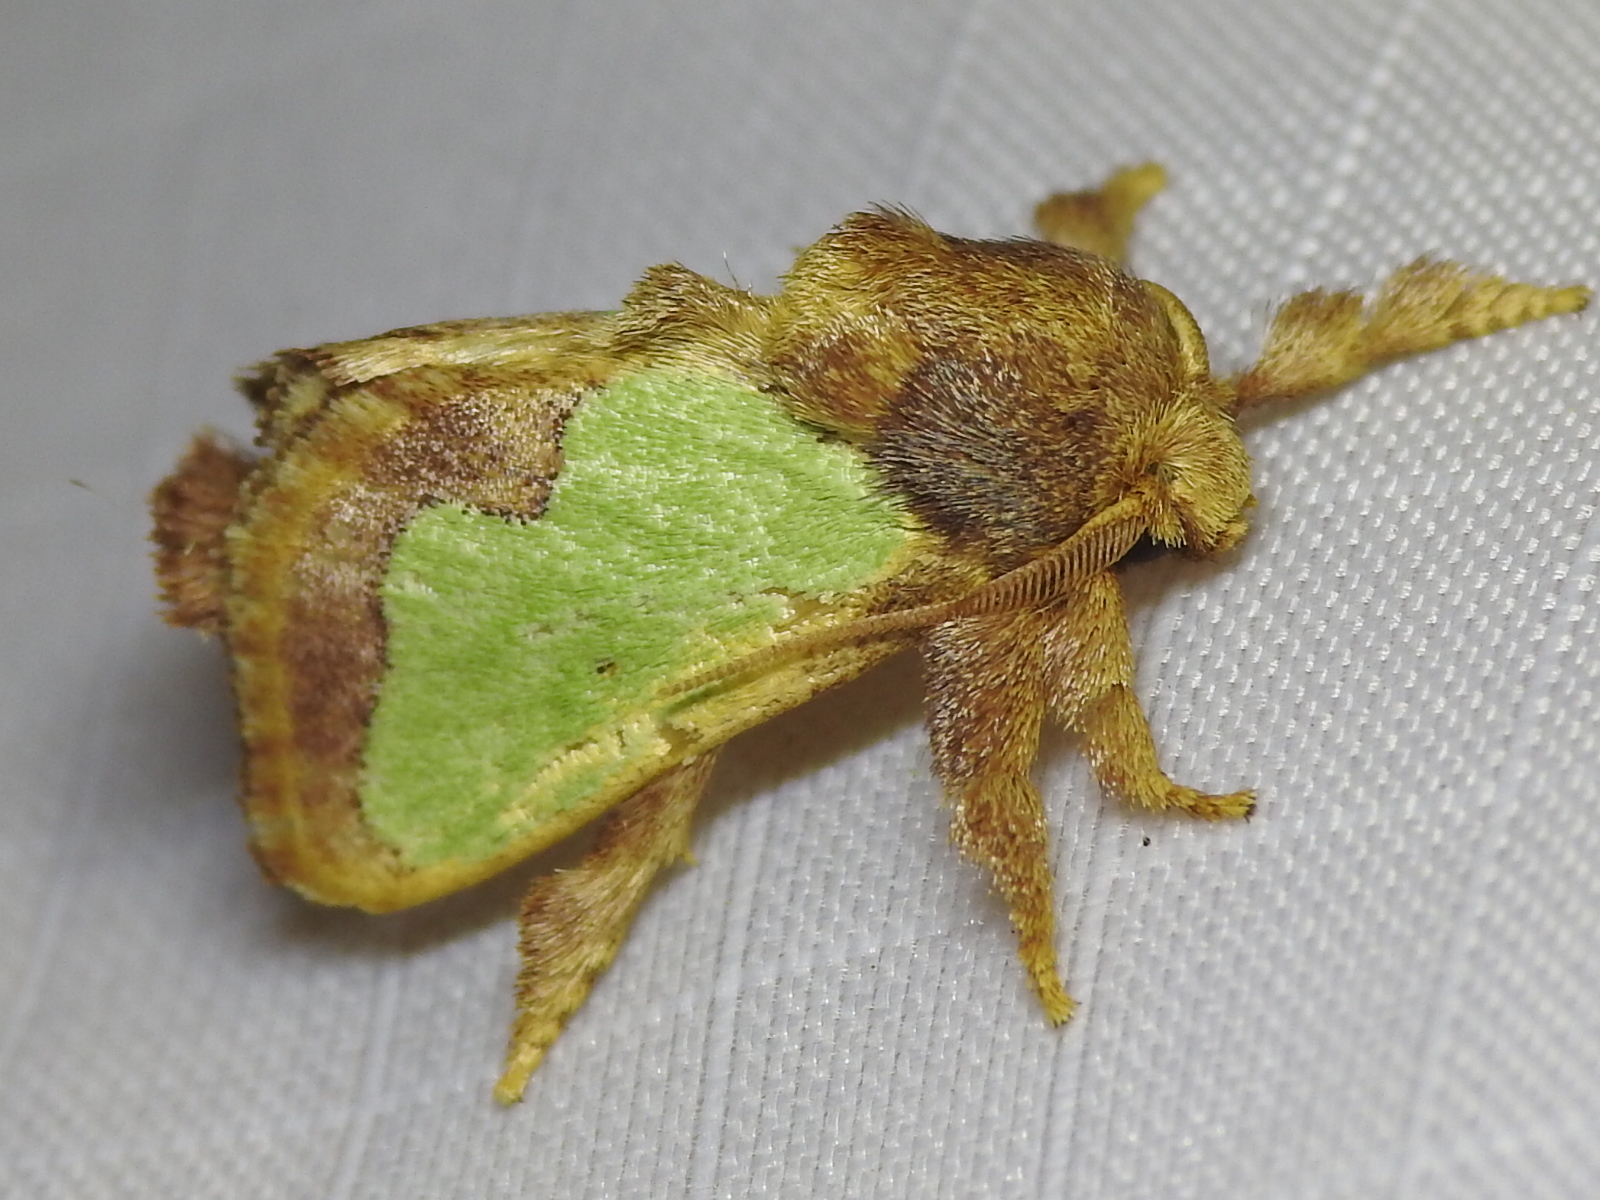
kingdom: Animalia
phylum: Arthropoda
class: Insecta
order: Lepidoptera
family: Limacodidae
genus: Euclea
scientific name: Euclea incisa
